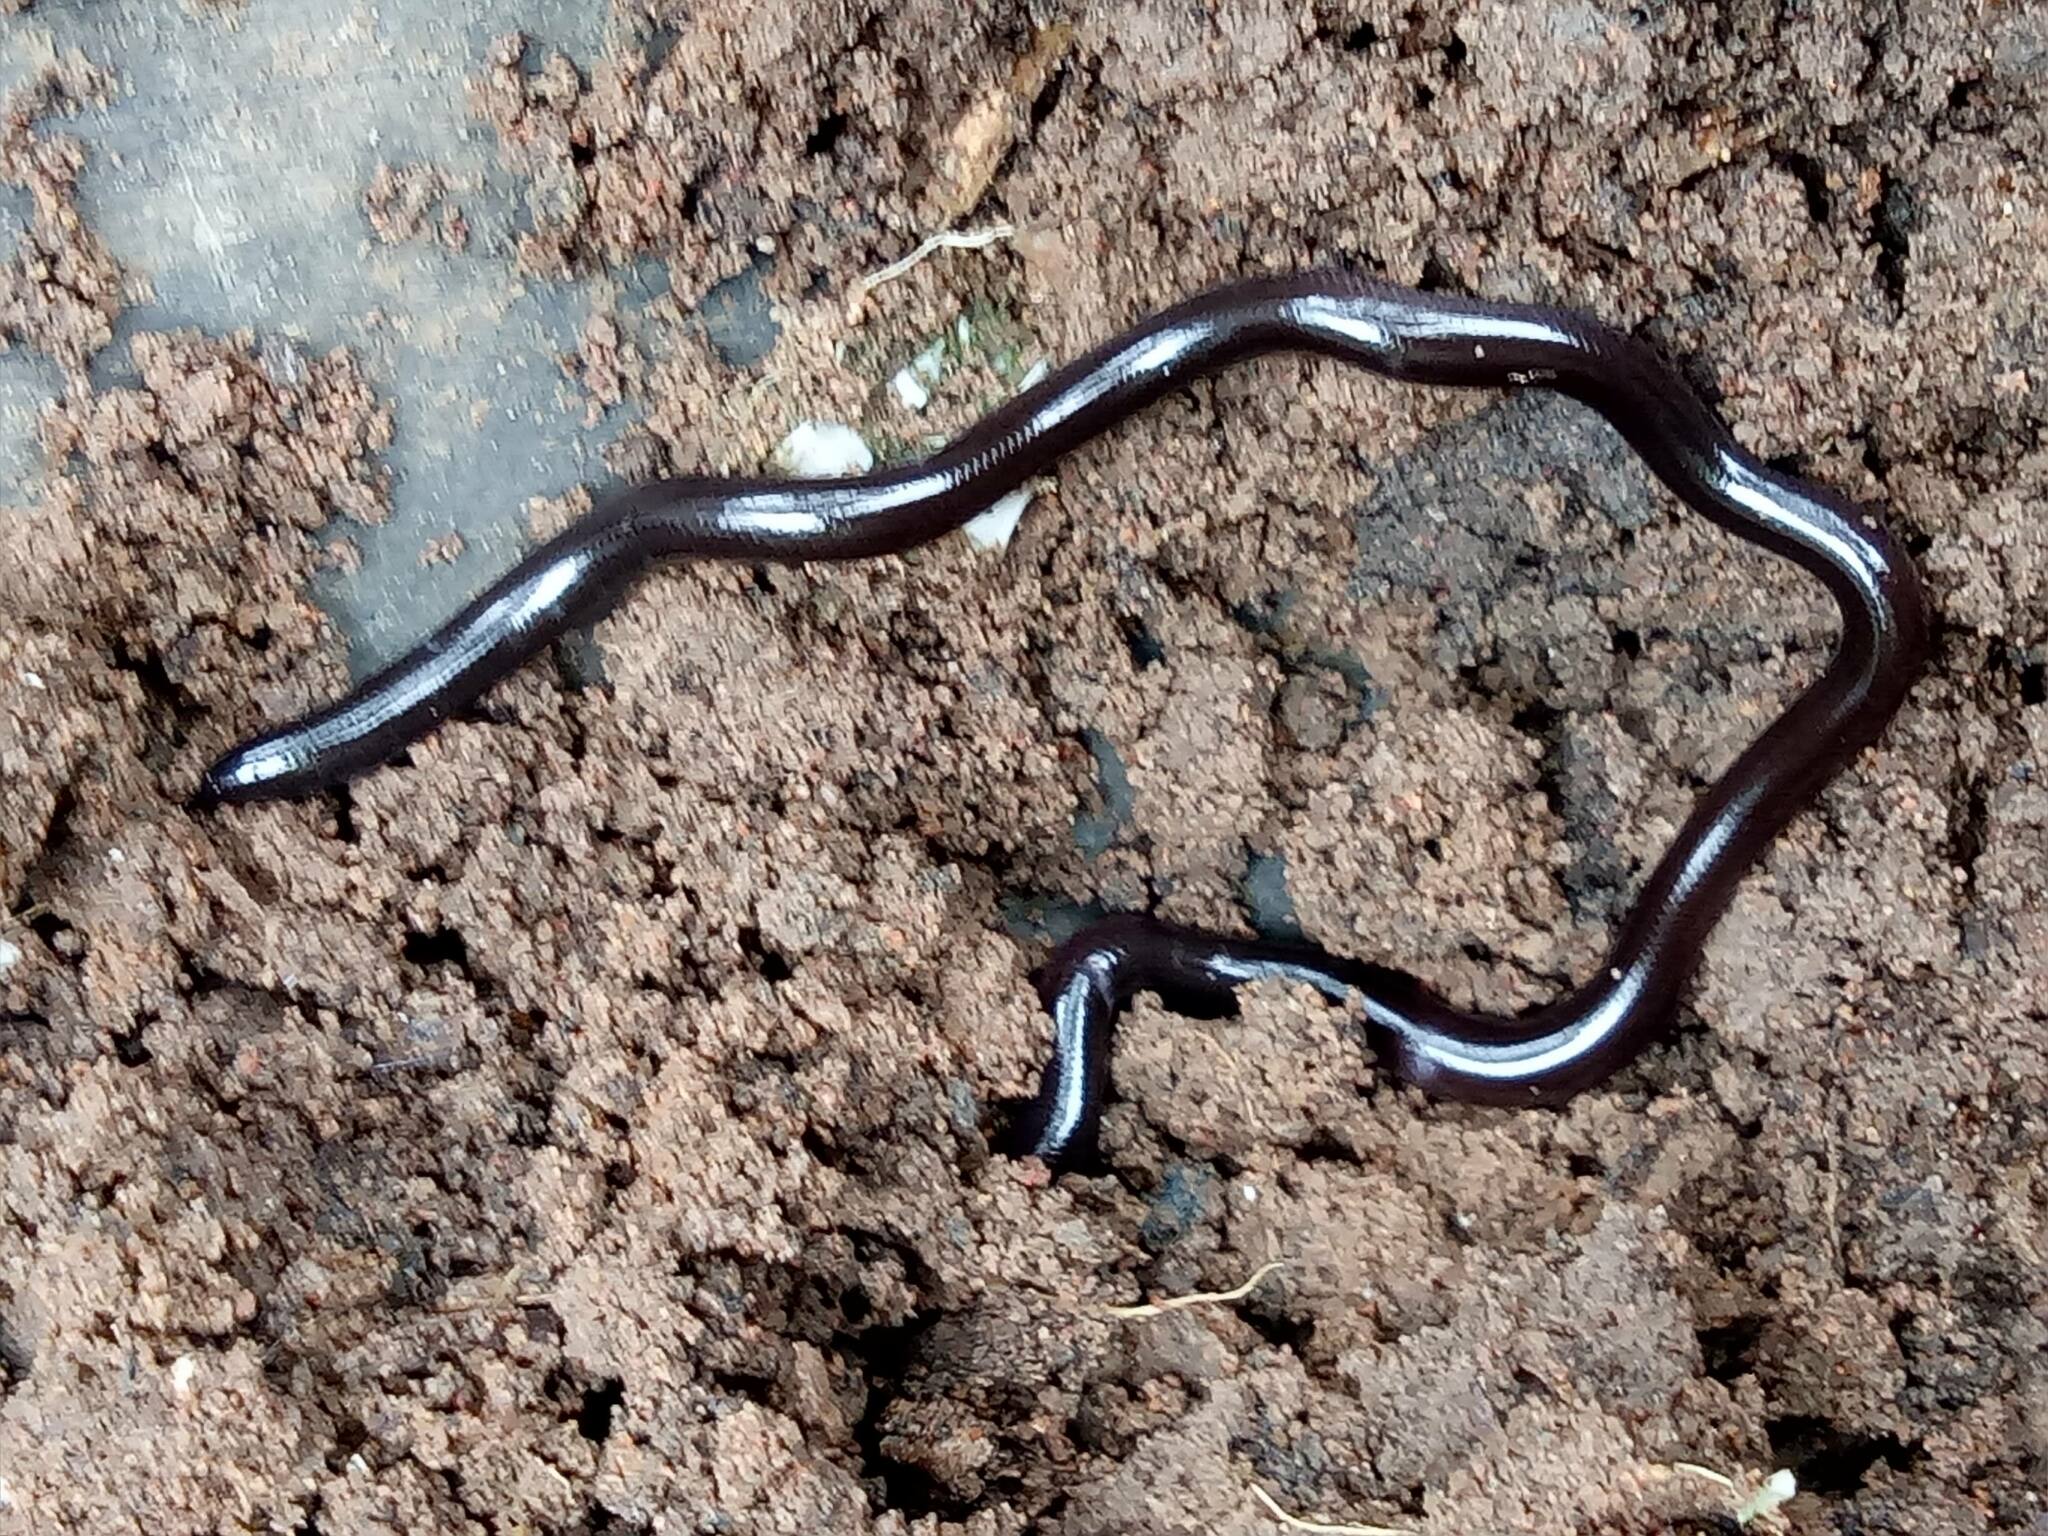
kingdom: Animalia
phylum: Chordata
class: Squamata
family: Typhlopidae
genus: Indotyphlops
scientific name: Indotyphlops braminus
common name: Brahminy blindsnake
